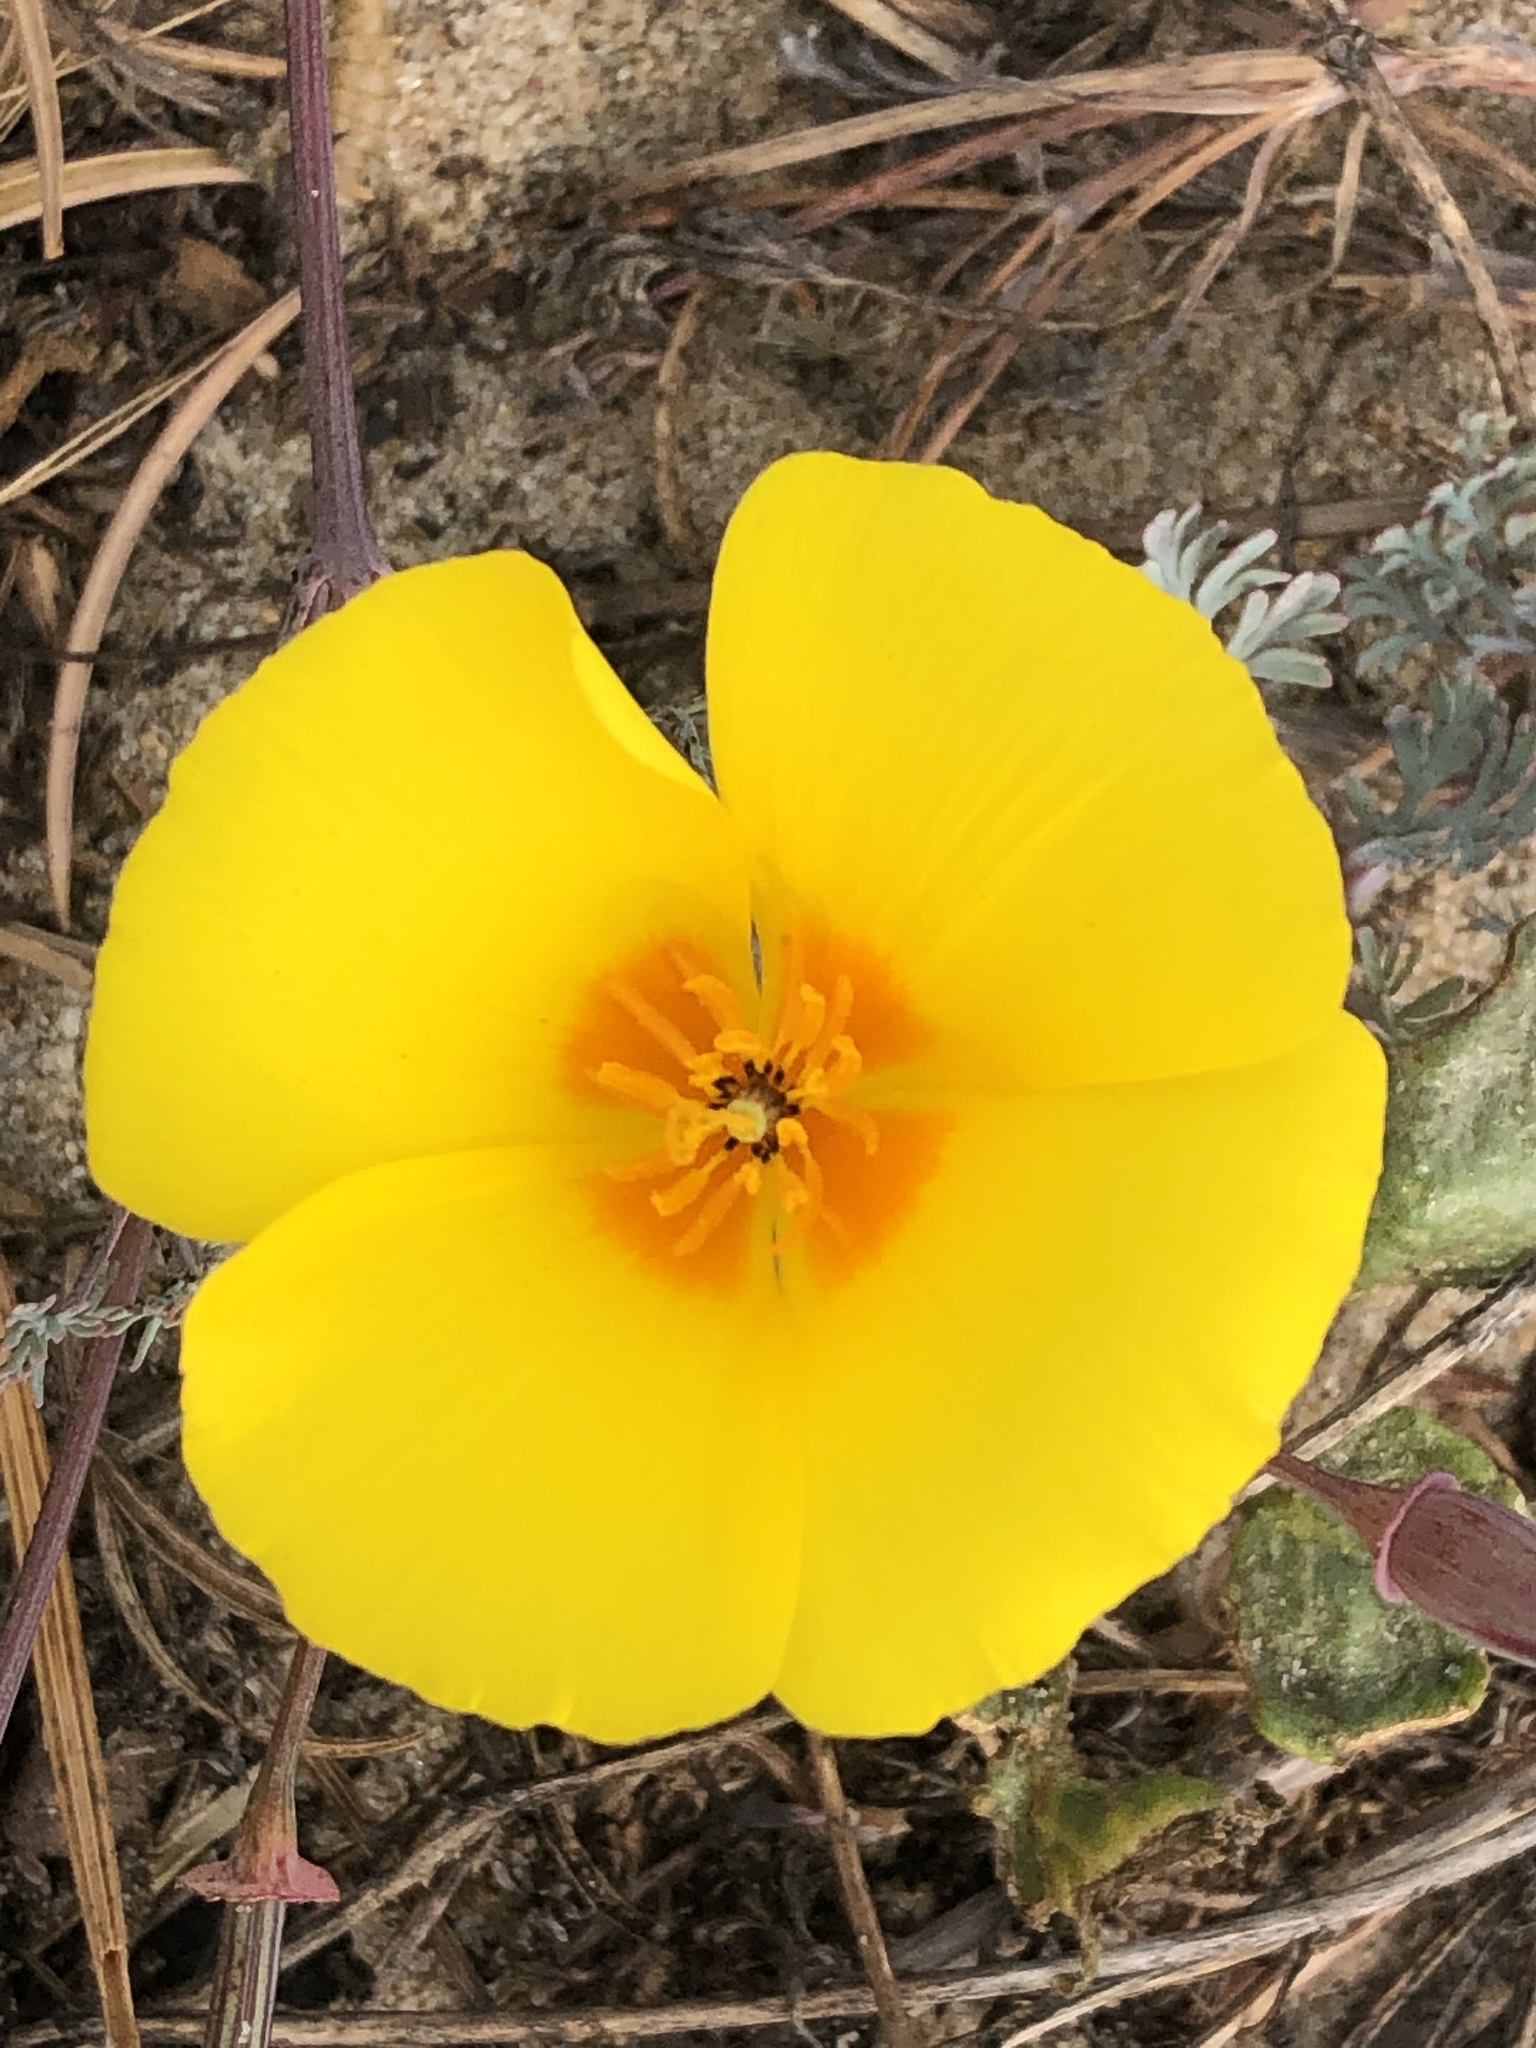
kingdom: Plantae
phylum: Tracheophyta
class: Magnoliopsida
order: Ranunculales
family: Papaveraceae
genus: Eschscholzia
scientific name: Eschscholzia californica
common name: California poppy
